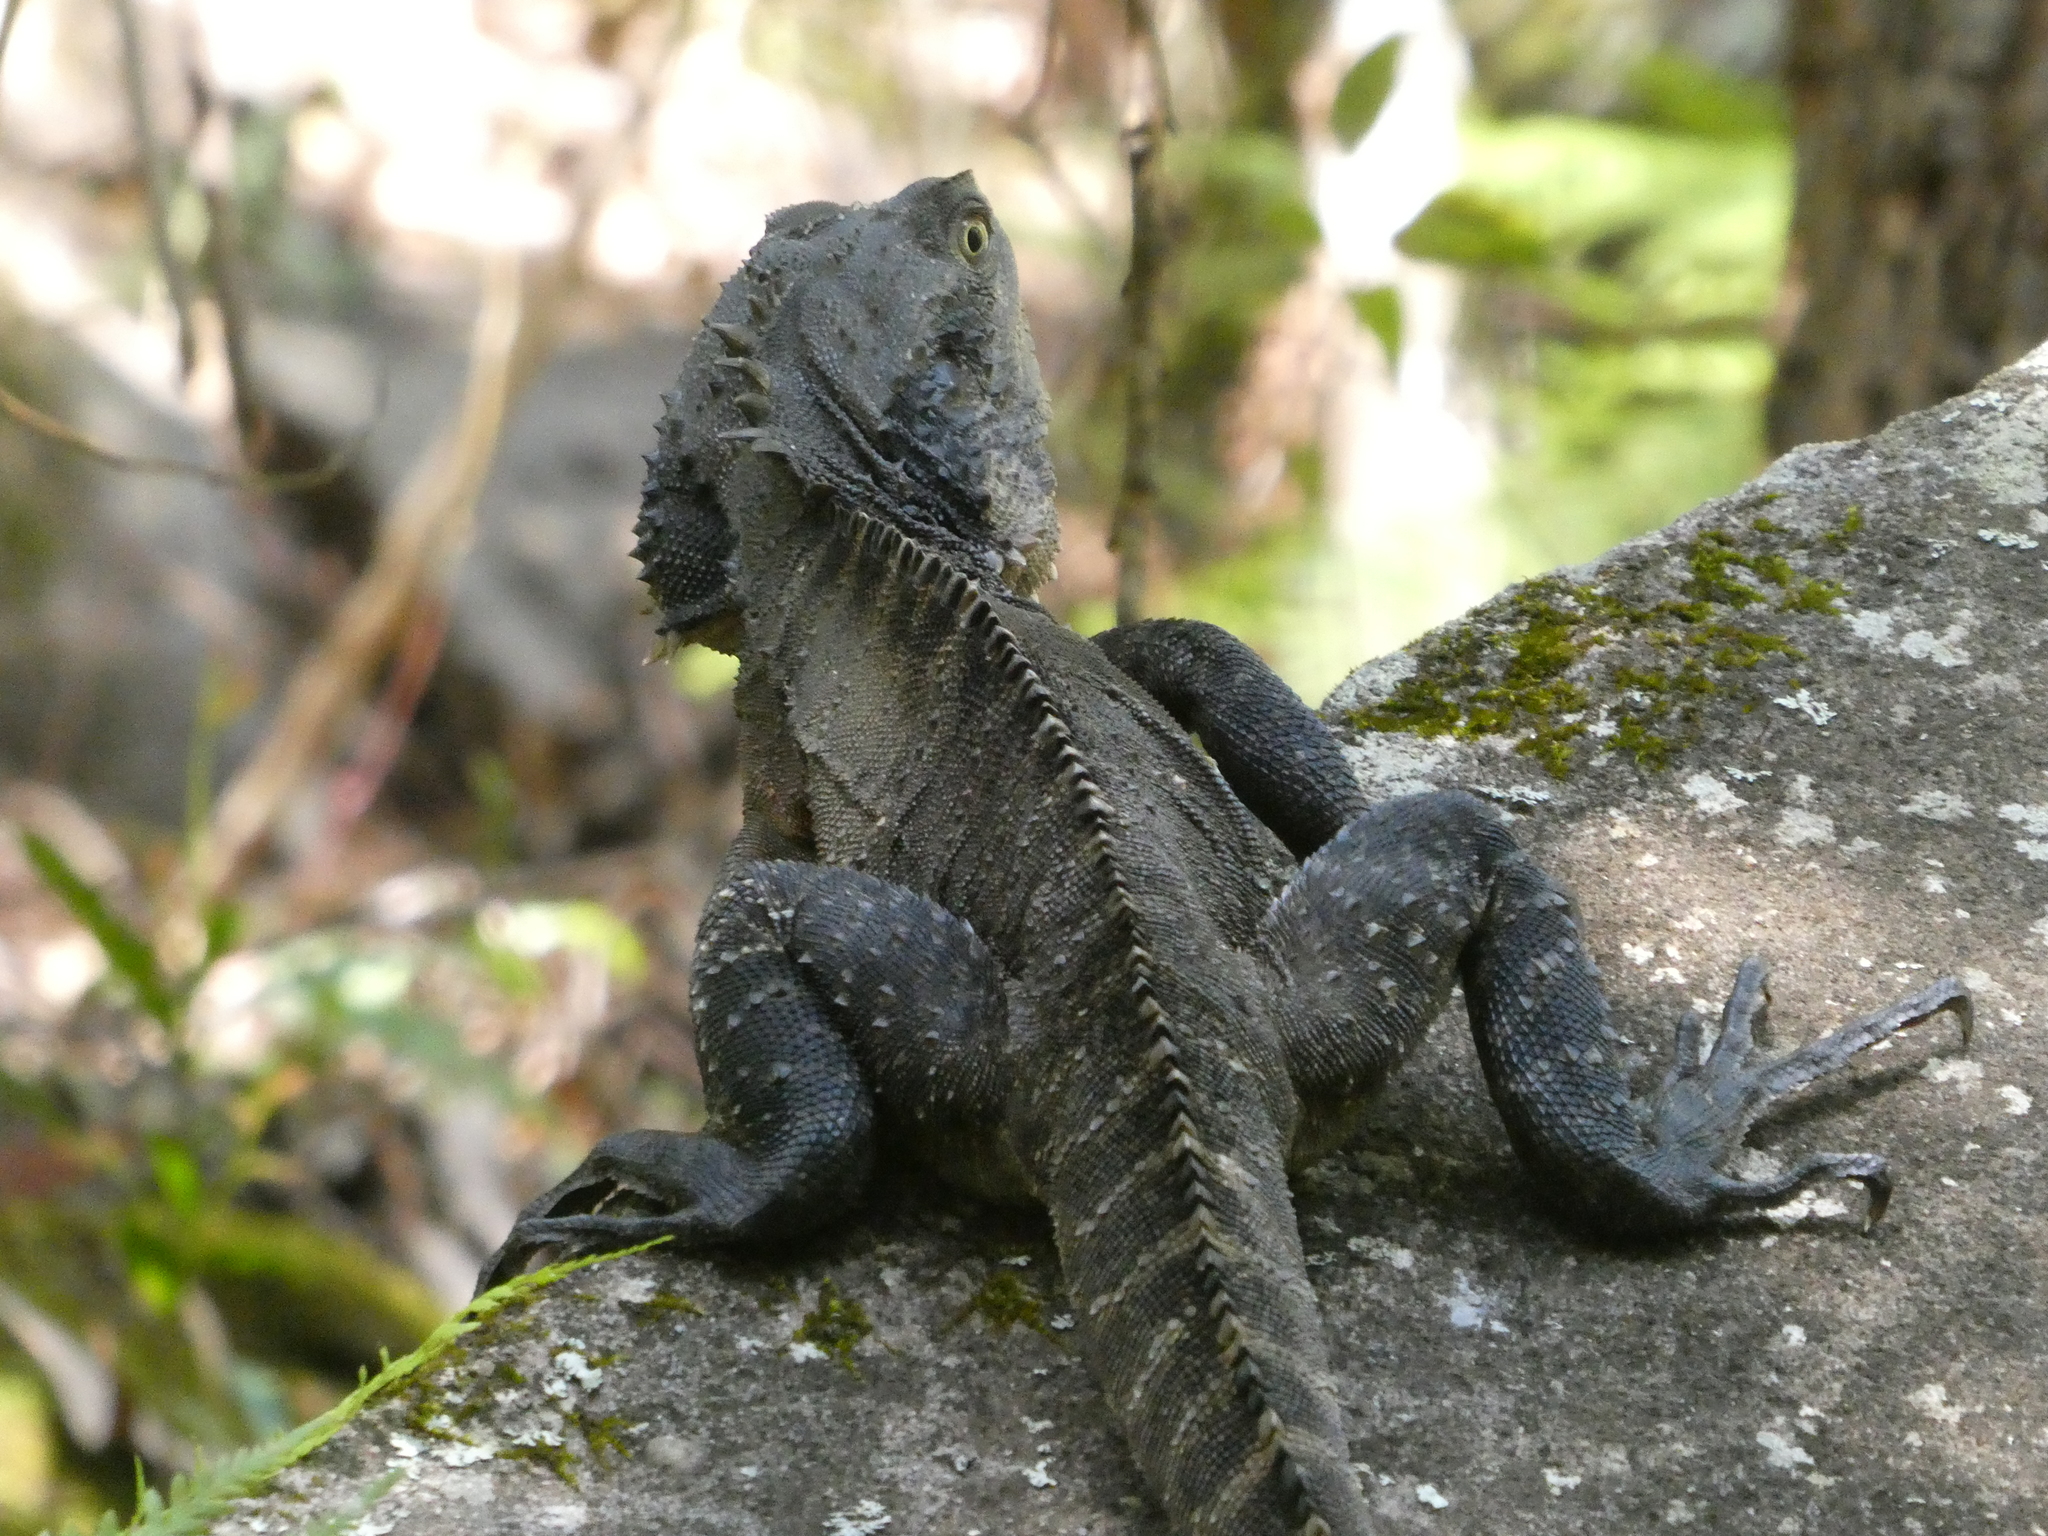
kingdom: Animalia
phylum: Chordata
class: Squamata
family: Agamidae
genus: Intellagama
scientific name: Intellagama lesueurii
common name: Eastern water dragon
